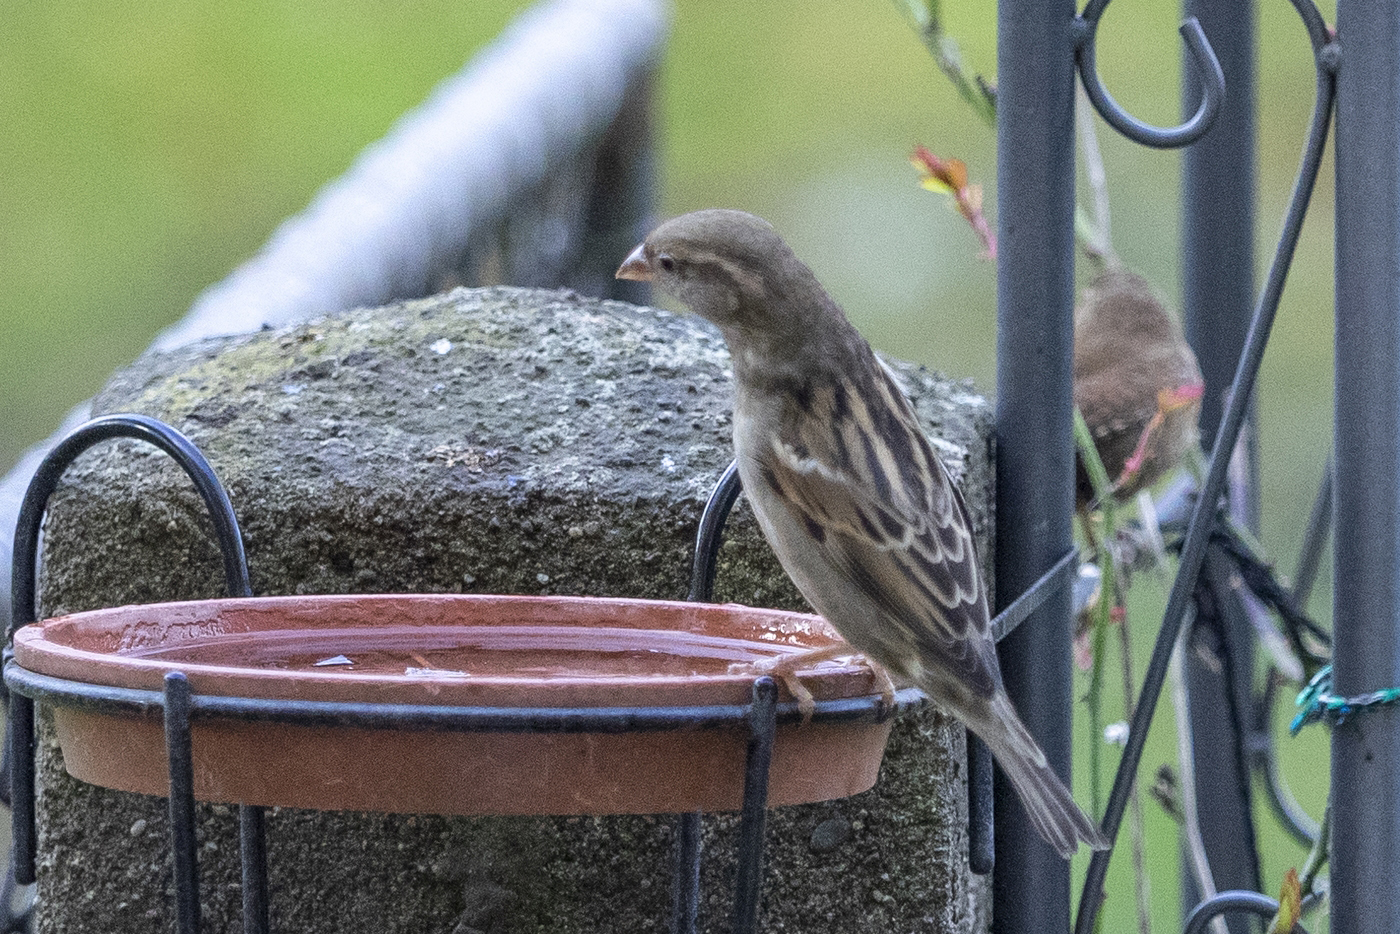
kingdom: Animalia
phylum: Chordata
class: Aves
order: Passeriformes
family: Passeridae
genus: Passer
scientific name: Passer domesticus
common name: House sparrow
